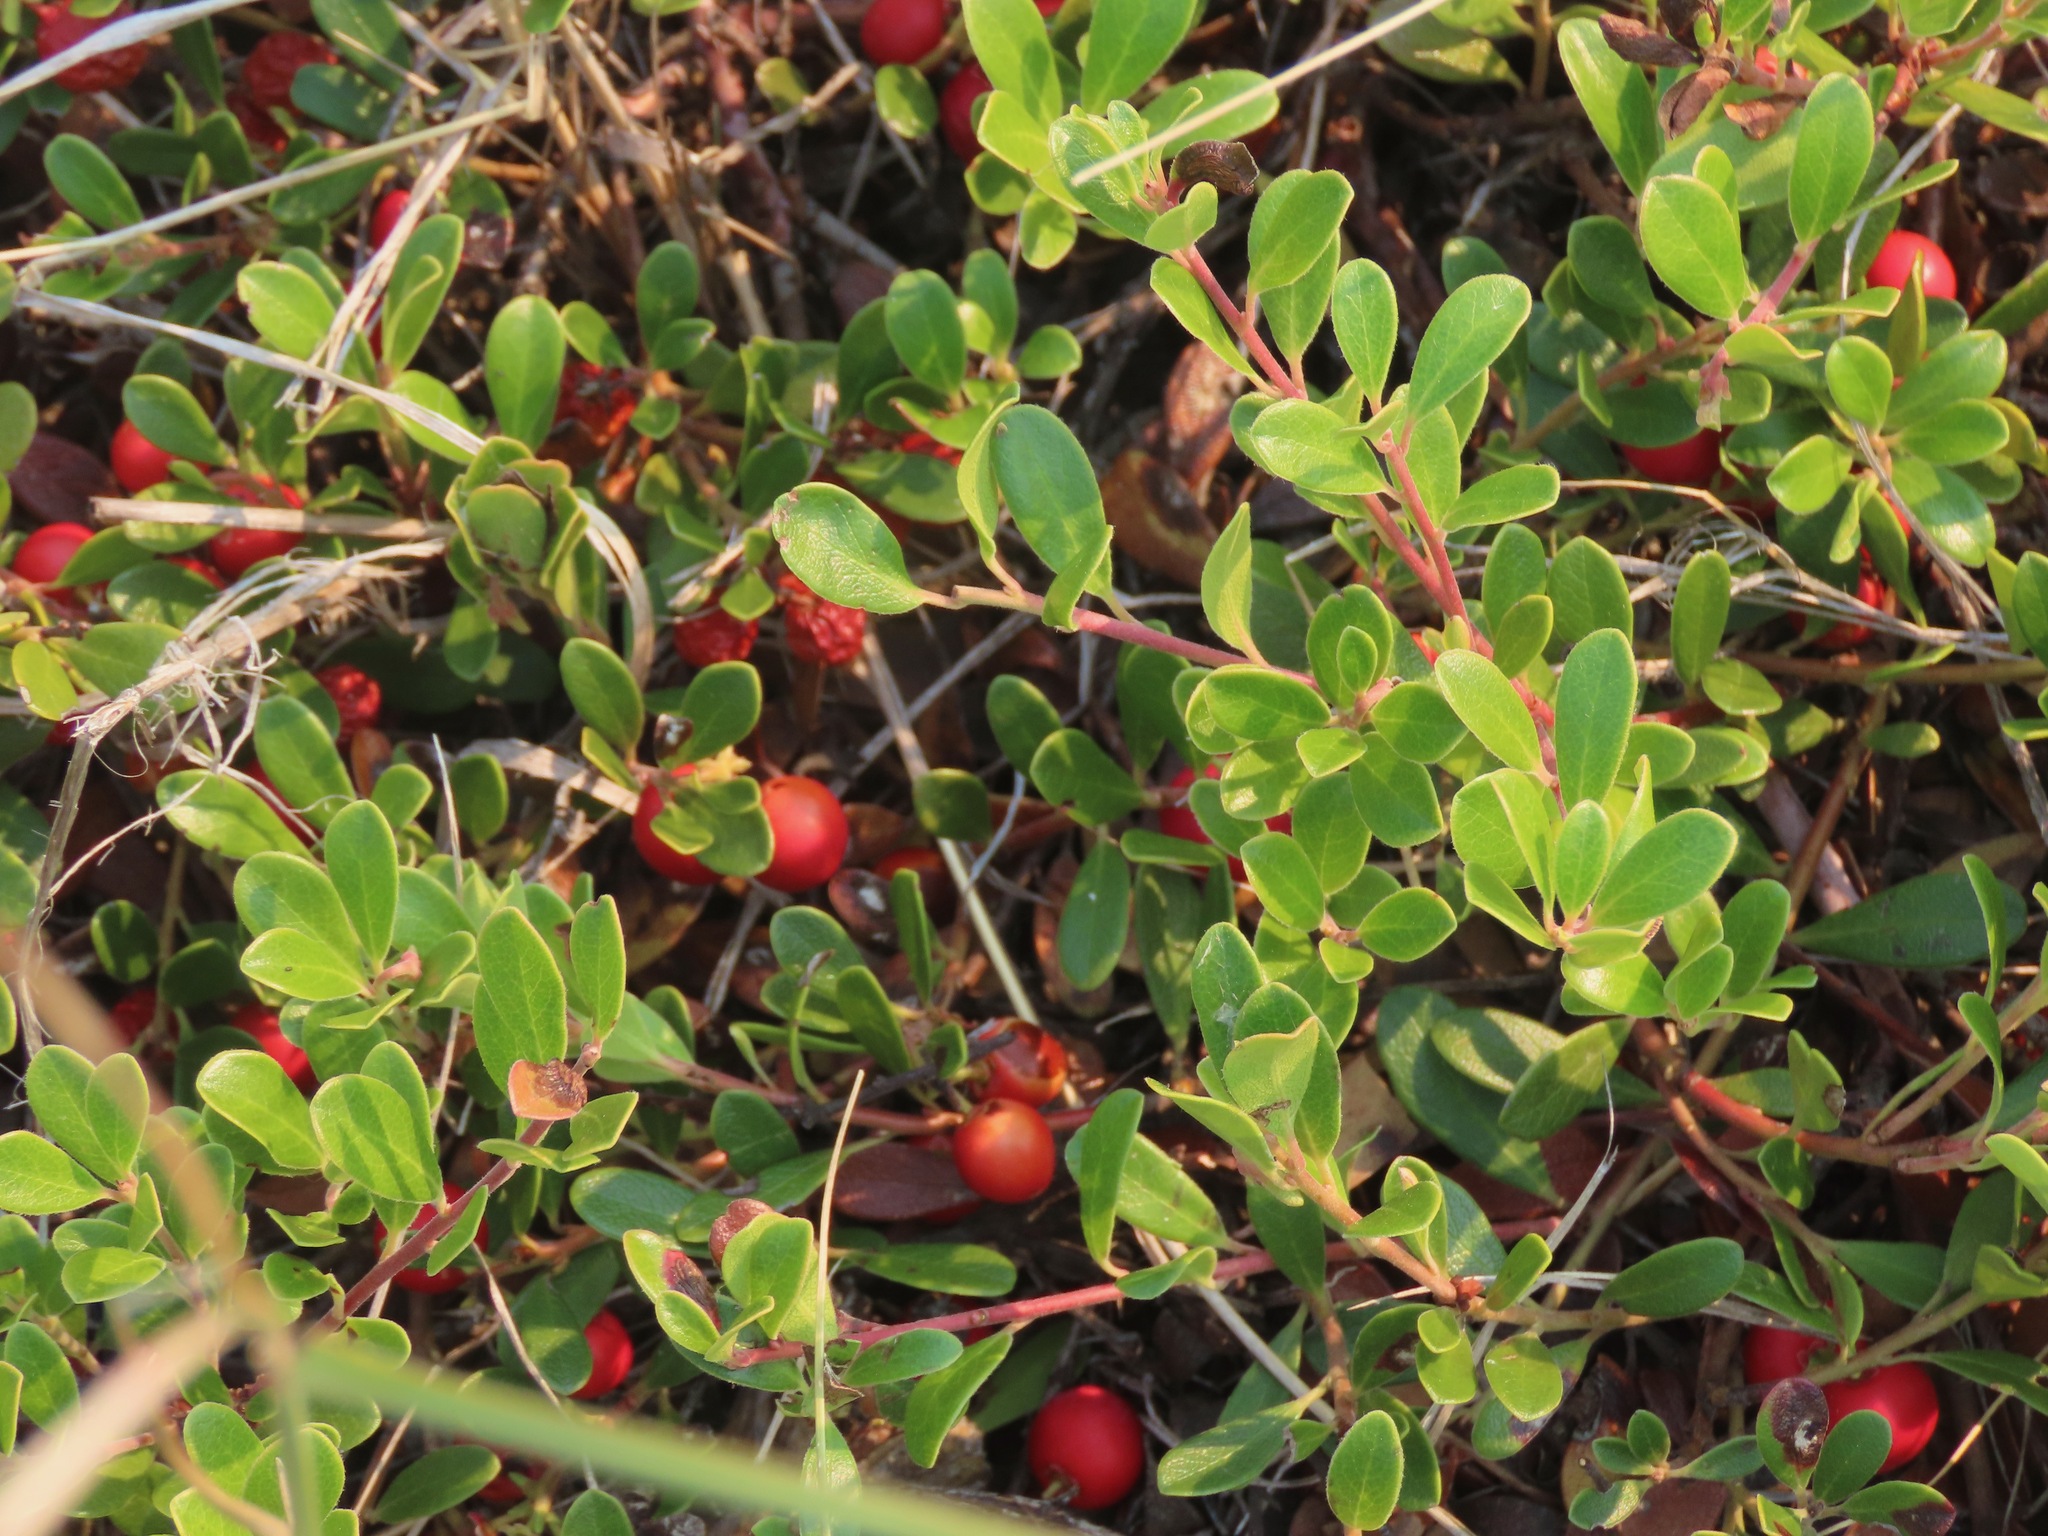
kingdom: Plantae
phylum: Tracheophyta
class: Magnoliopsida
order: Ericales
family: Ericaceae
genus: Arctostaphylos
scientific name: Arctostaphylos uva-ursi
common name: Bearberry
